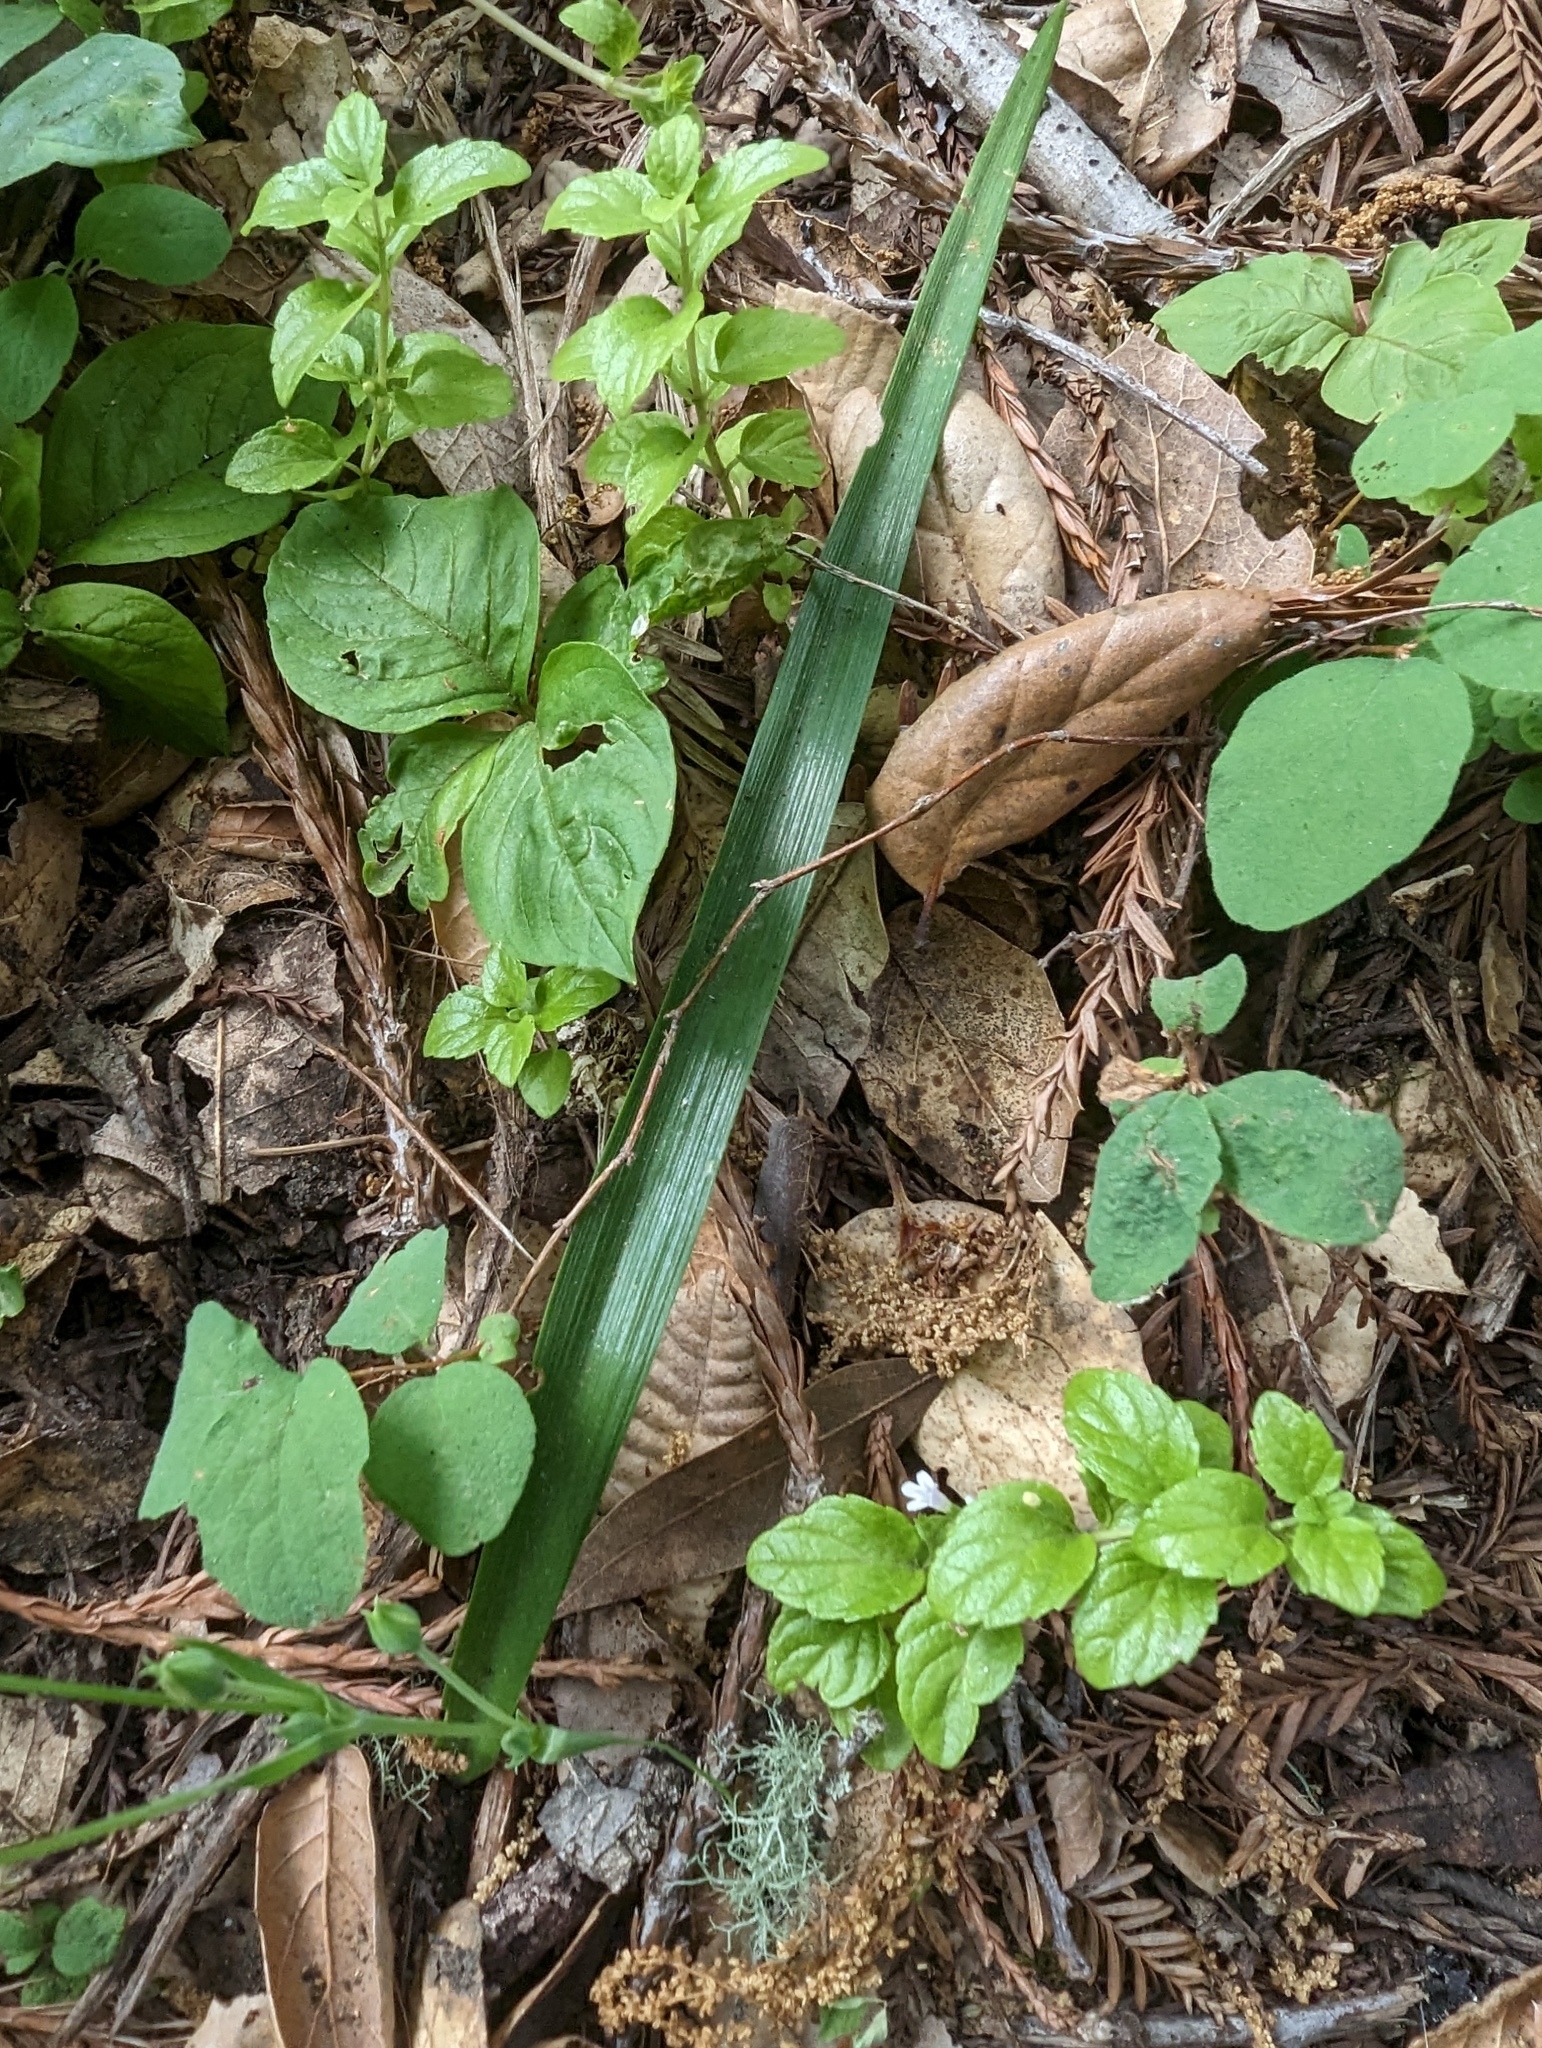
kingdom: Plantae
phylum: Tracheophyta
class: Liliopsida
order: Liliales
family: Liliaceae
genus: Calochortus
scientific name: Calochortus tolmiei
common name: Pussy-ears
